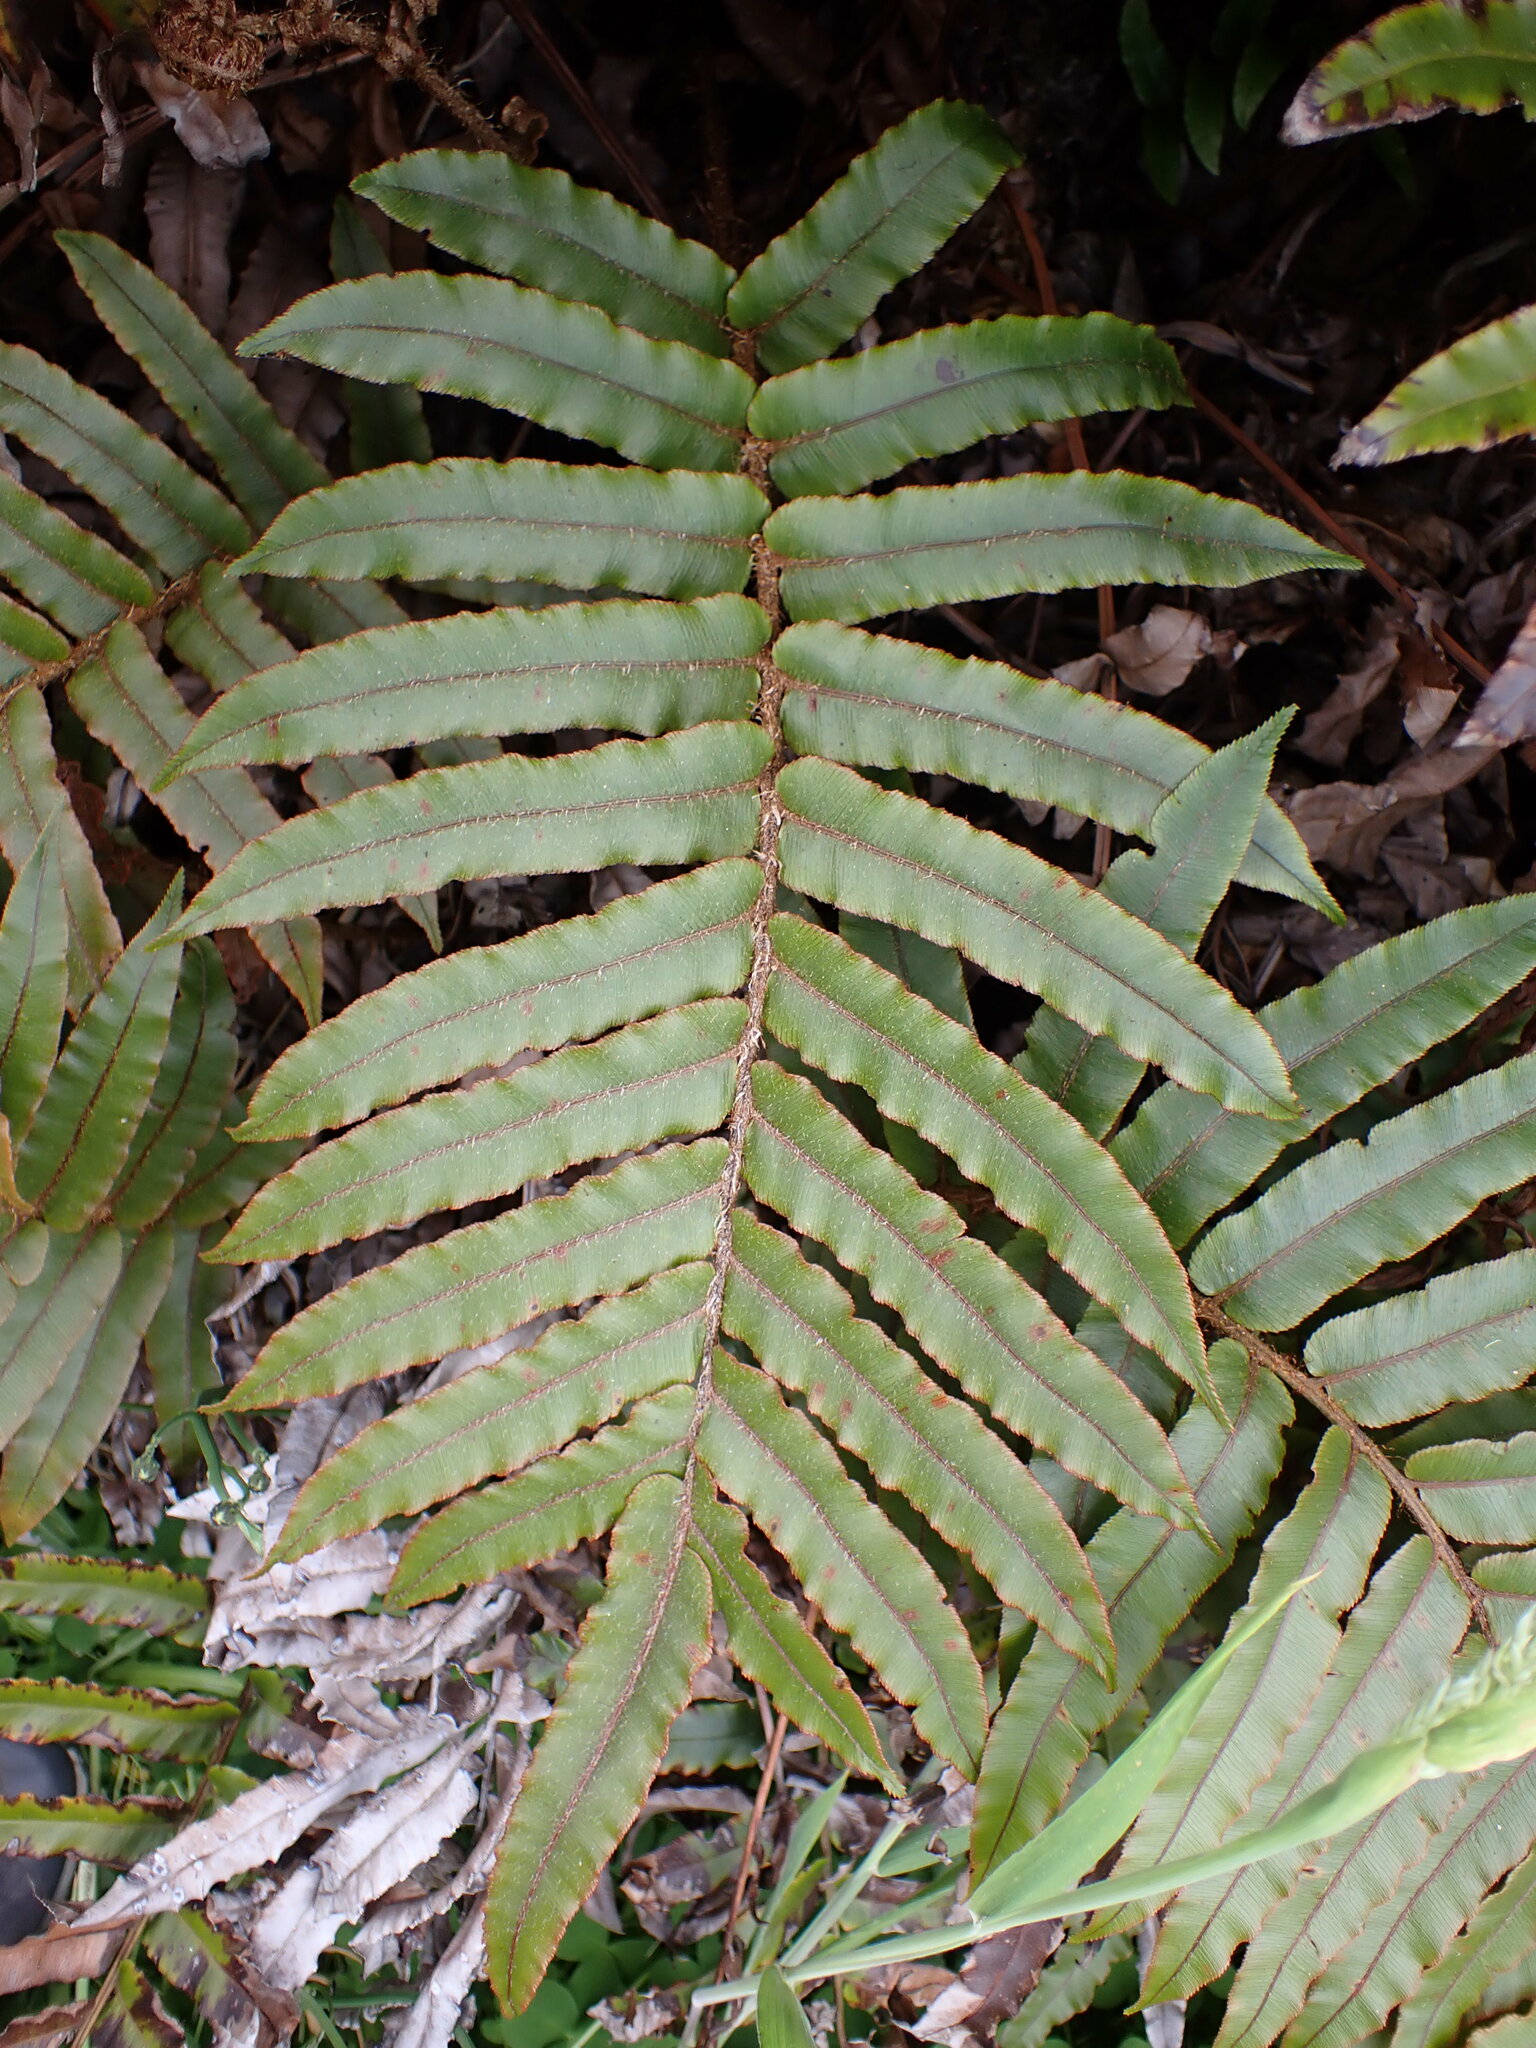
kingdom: Plantae
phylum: Tracheophyta
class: Polypodiopsida
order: Polypodiales
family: Blechnaceae
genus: Parablechnum
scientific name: Parablechnum procerum
